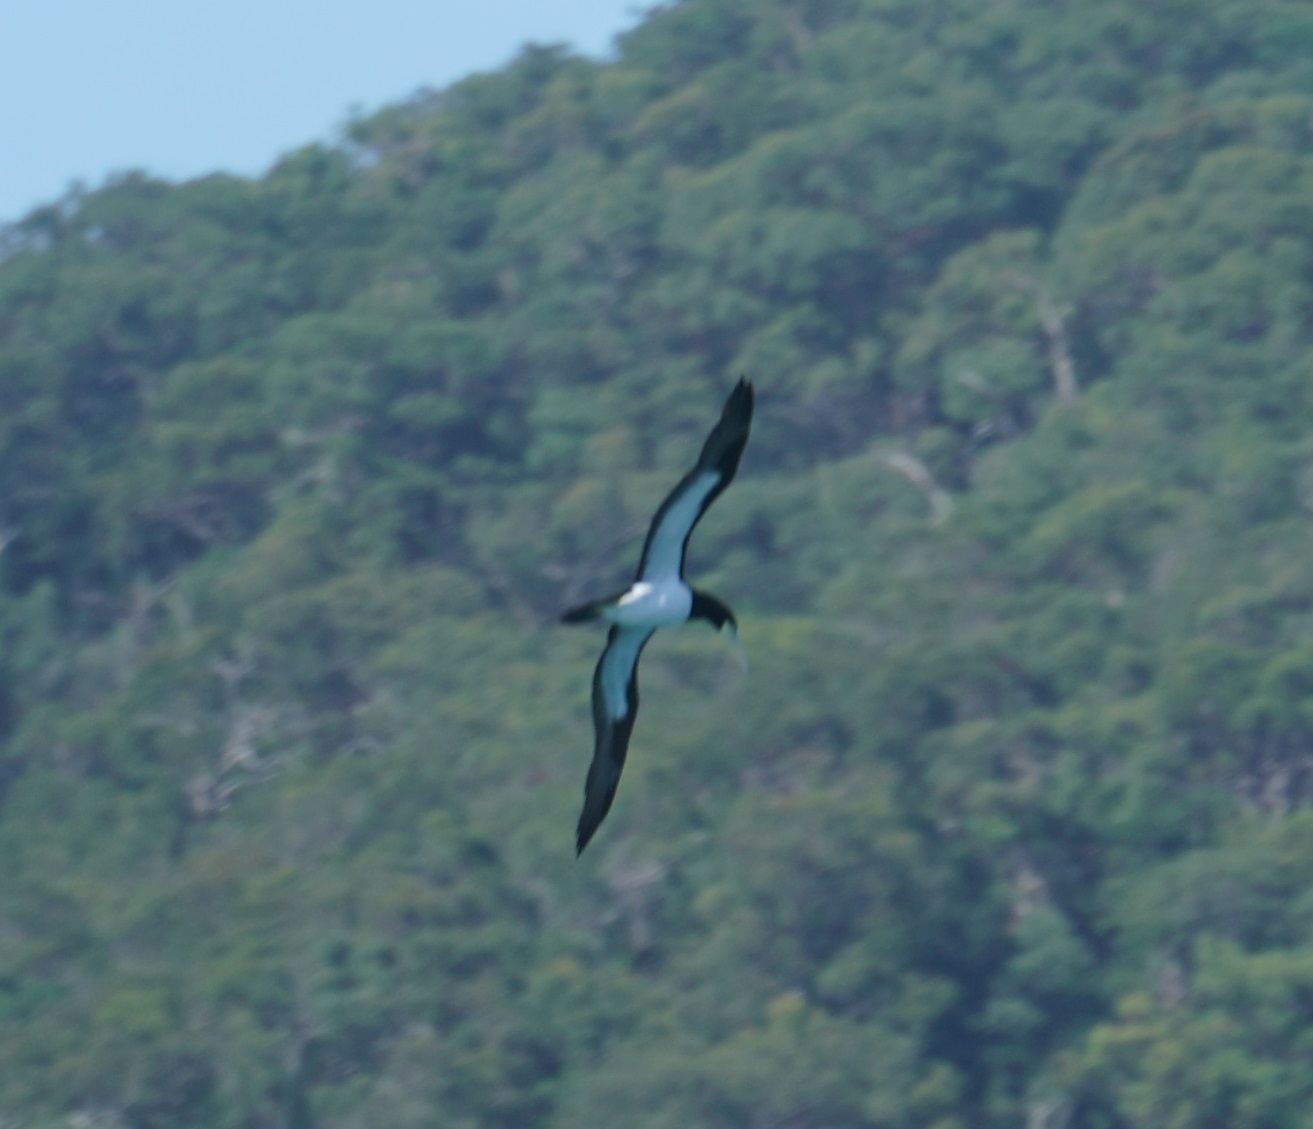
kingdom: Animalia
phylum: Chordata
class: Aves
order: Suliformes
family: Sulidae
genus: Sula
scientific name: Sula leucogaster
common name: Brown booby
